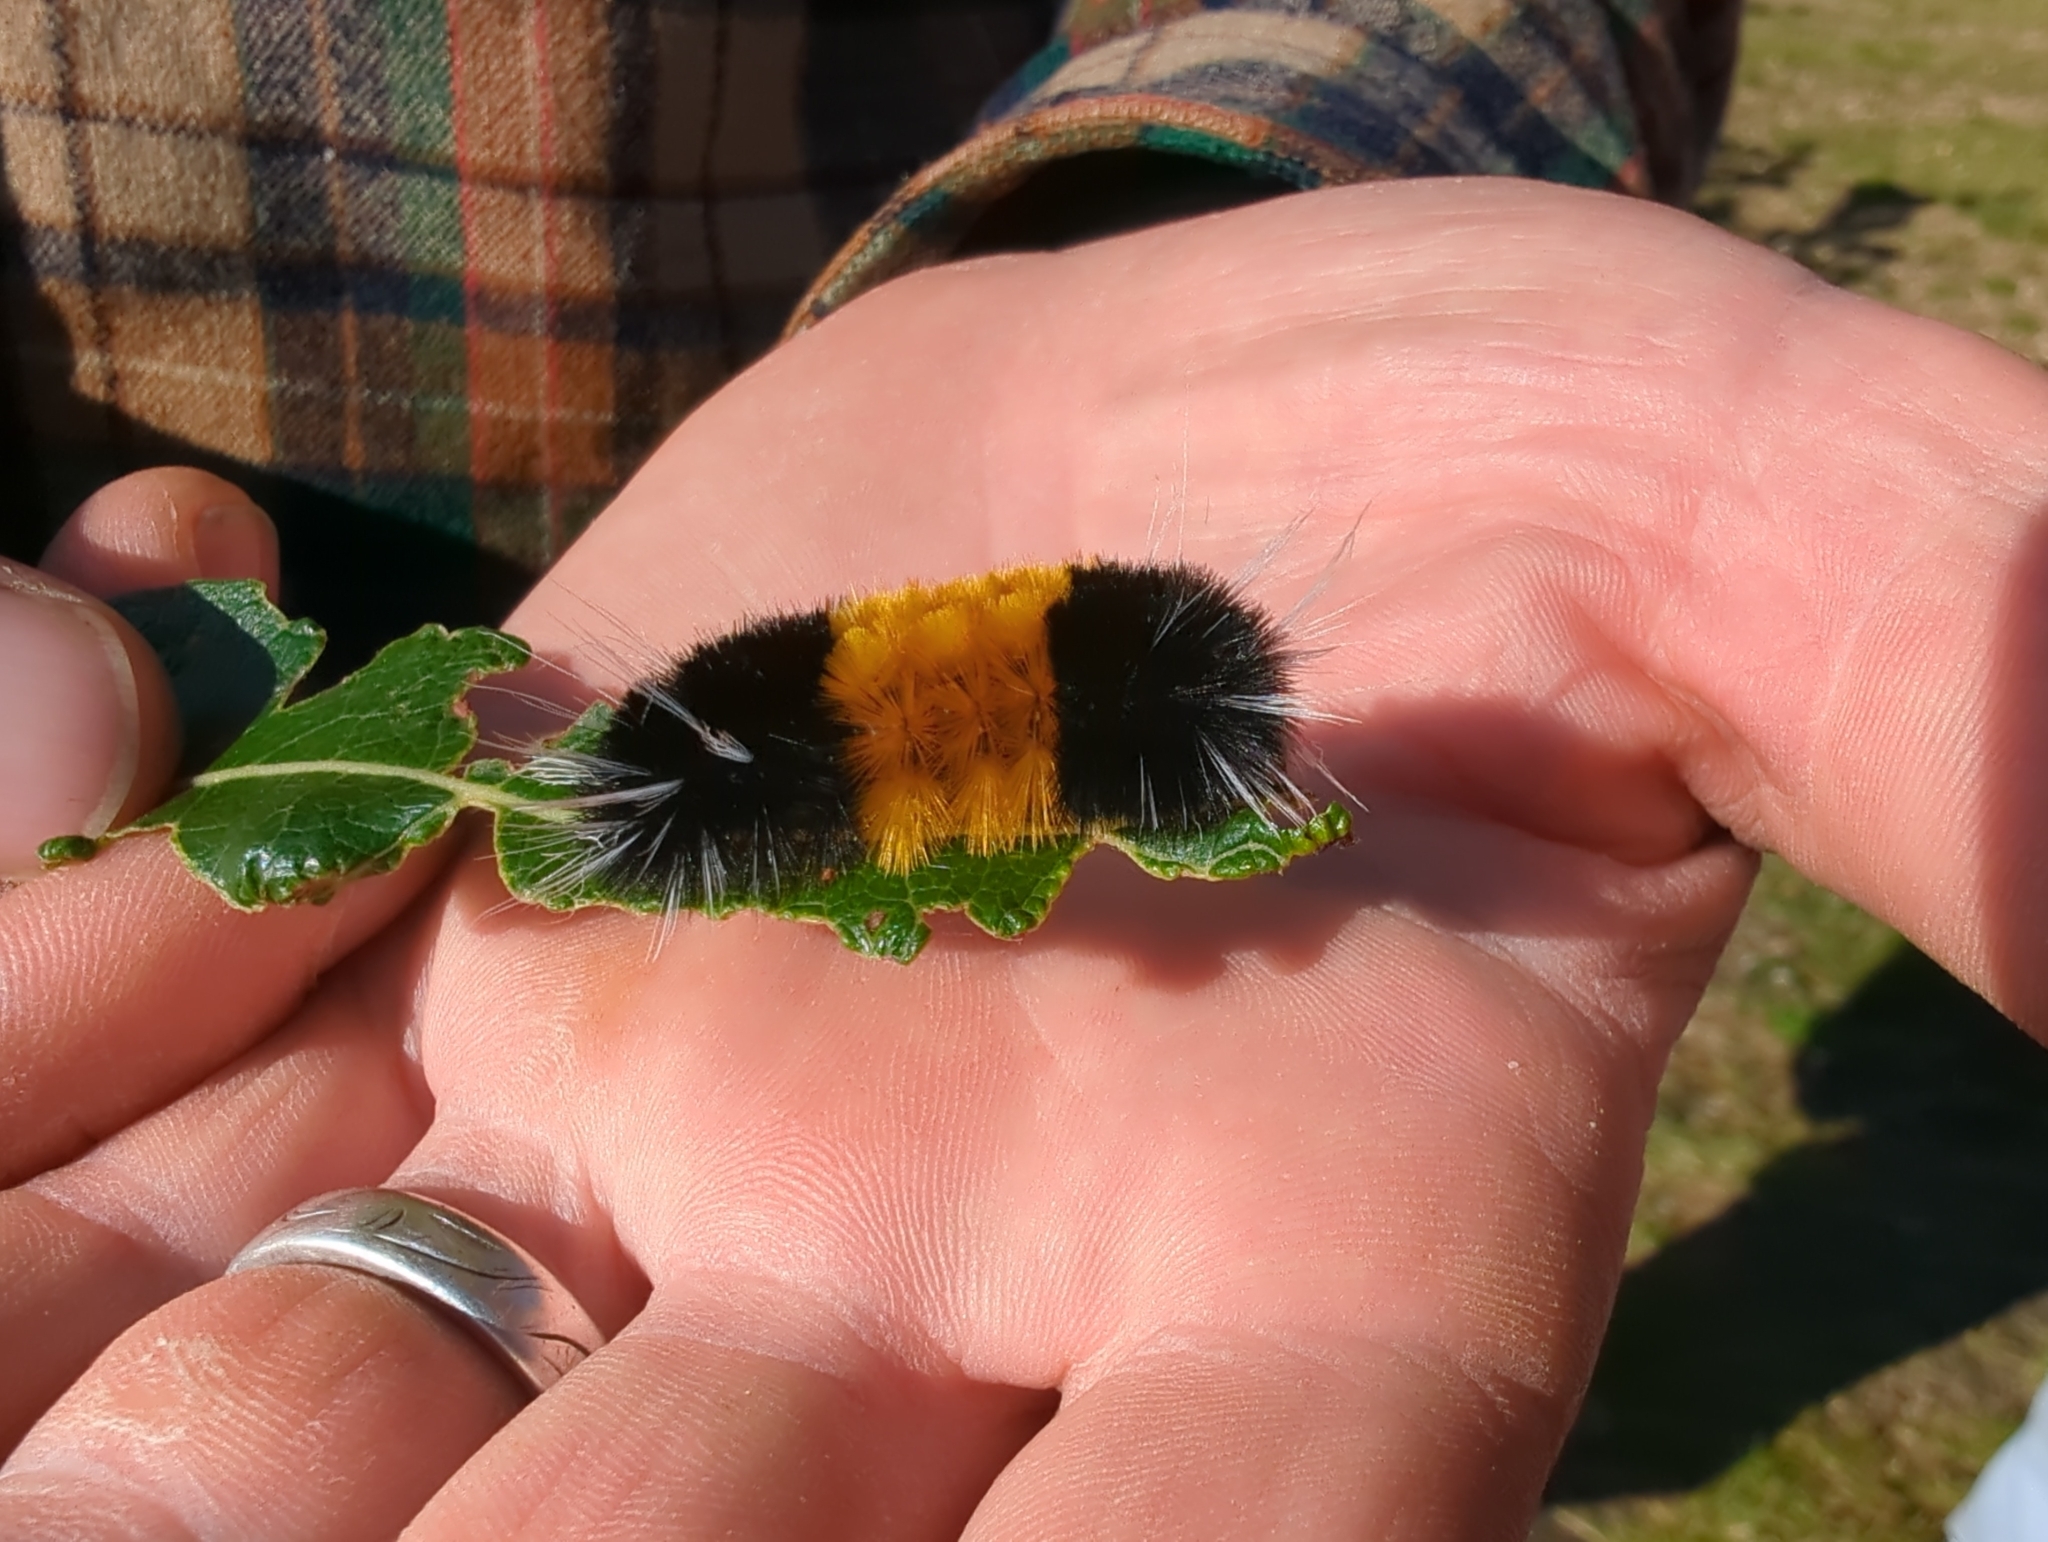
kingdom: Animalia
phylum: Arthropoda
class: Insecta
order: Lepidoptera
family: Erebidae
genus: Lophocampa
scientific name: Lophocampa maculata
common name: Spotted tussock moth
